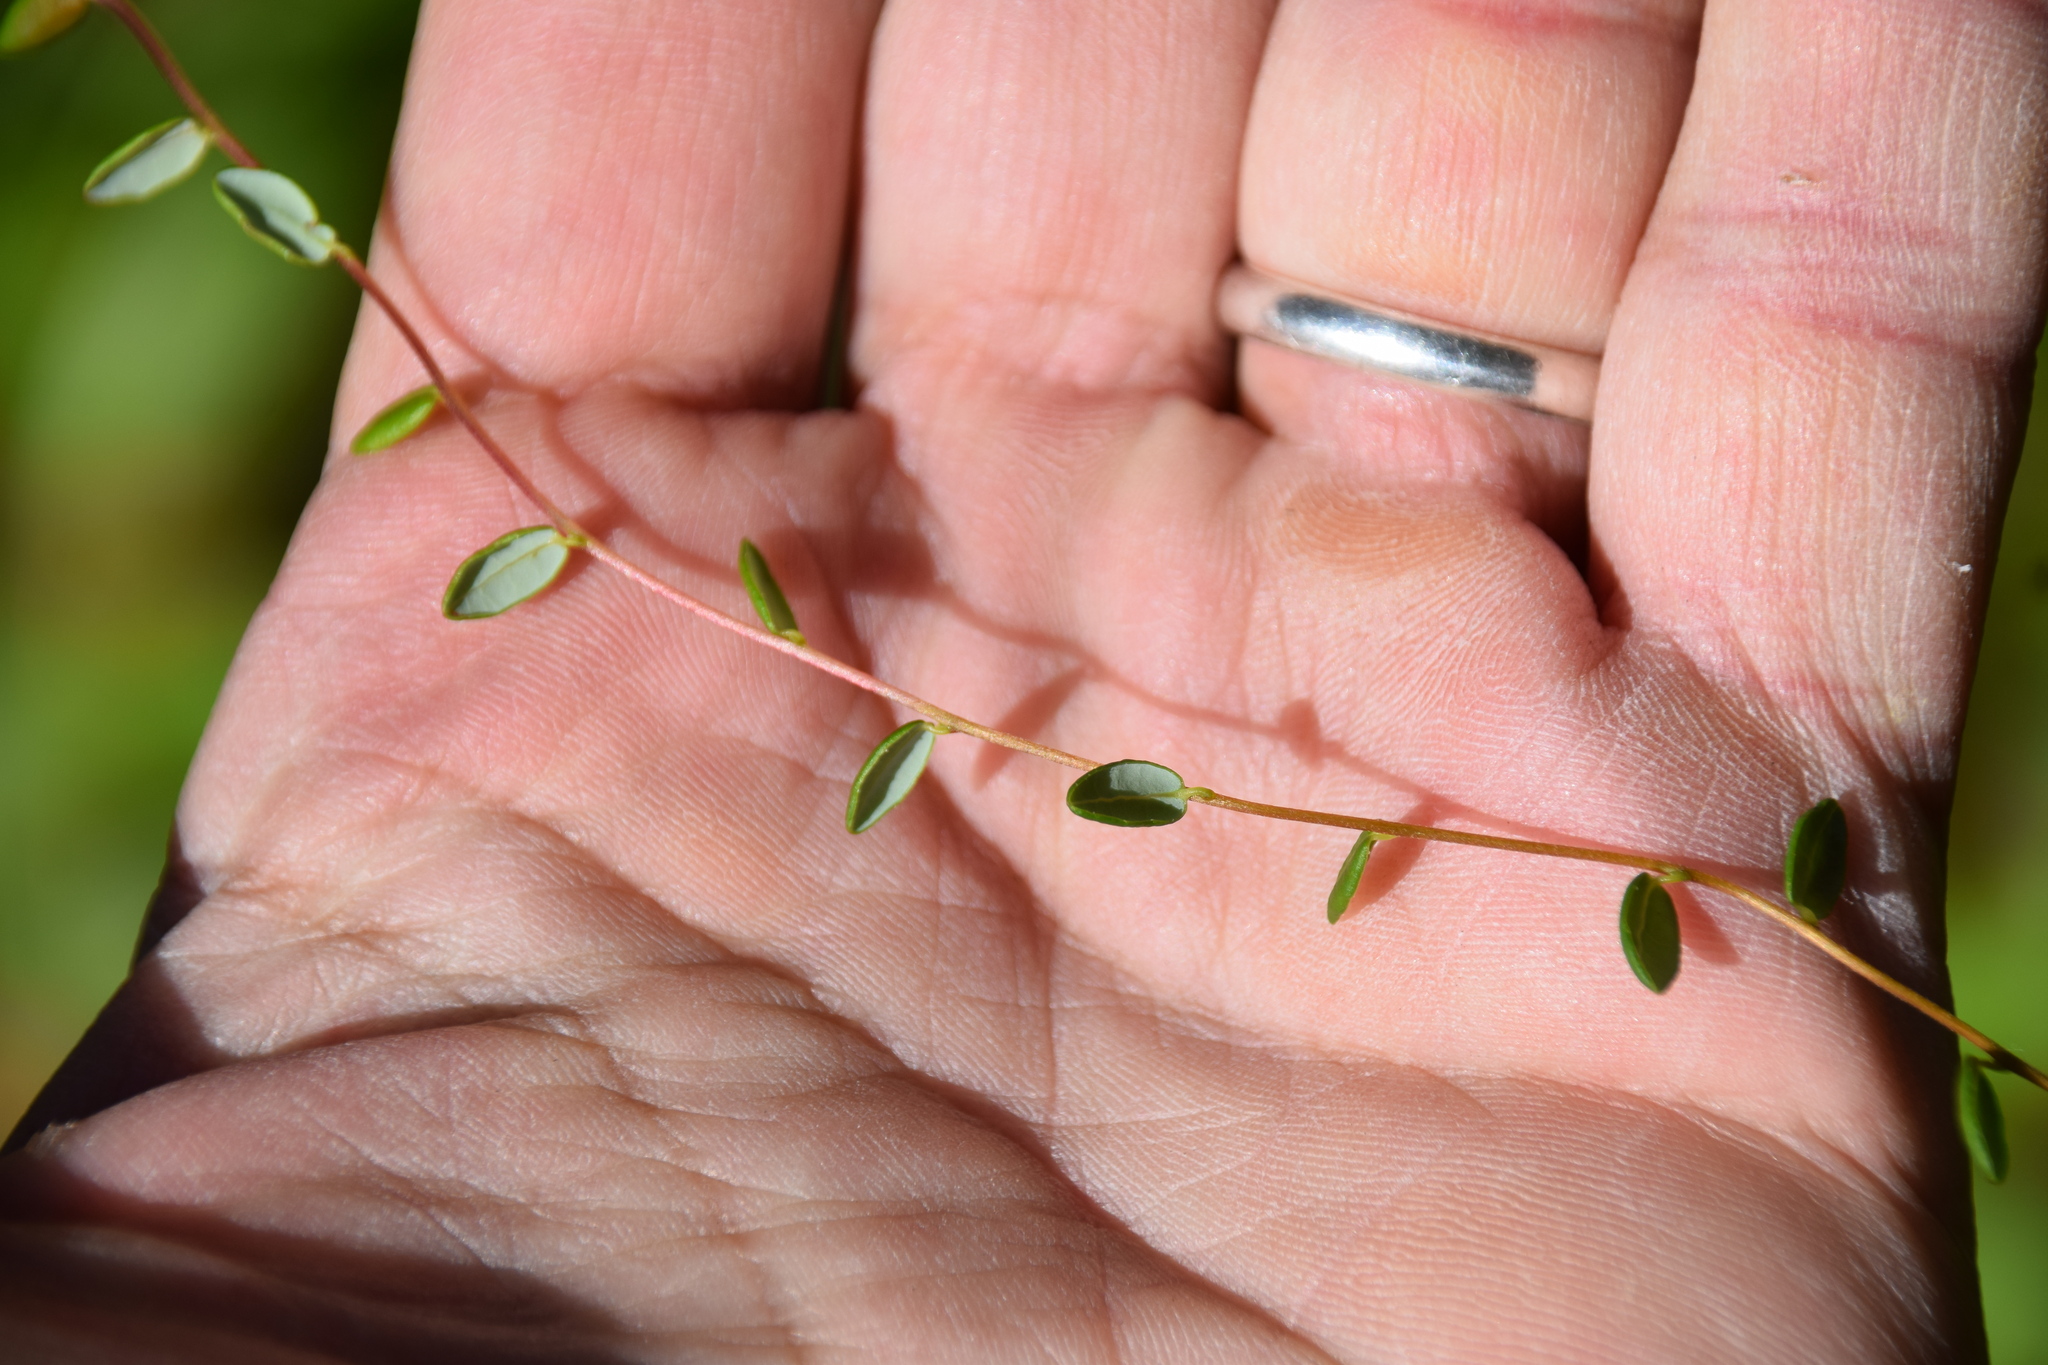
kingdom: Plantae
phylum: Tracheophyta
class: Magnoliopsida
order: Ericales
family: Ericaceae
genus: Vaccinium
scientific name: Vaccinium oxycoccos
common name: Cranberry
